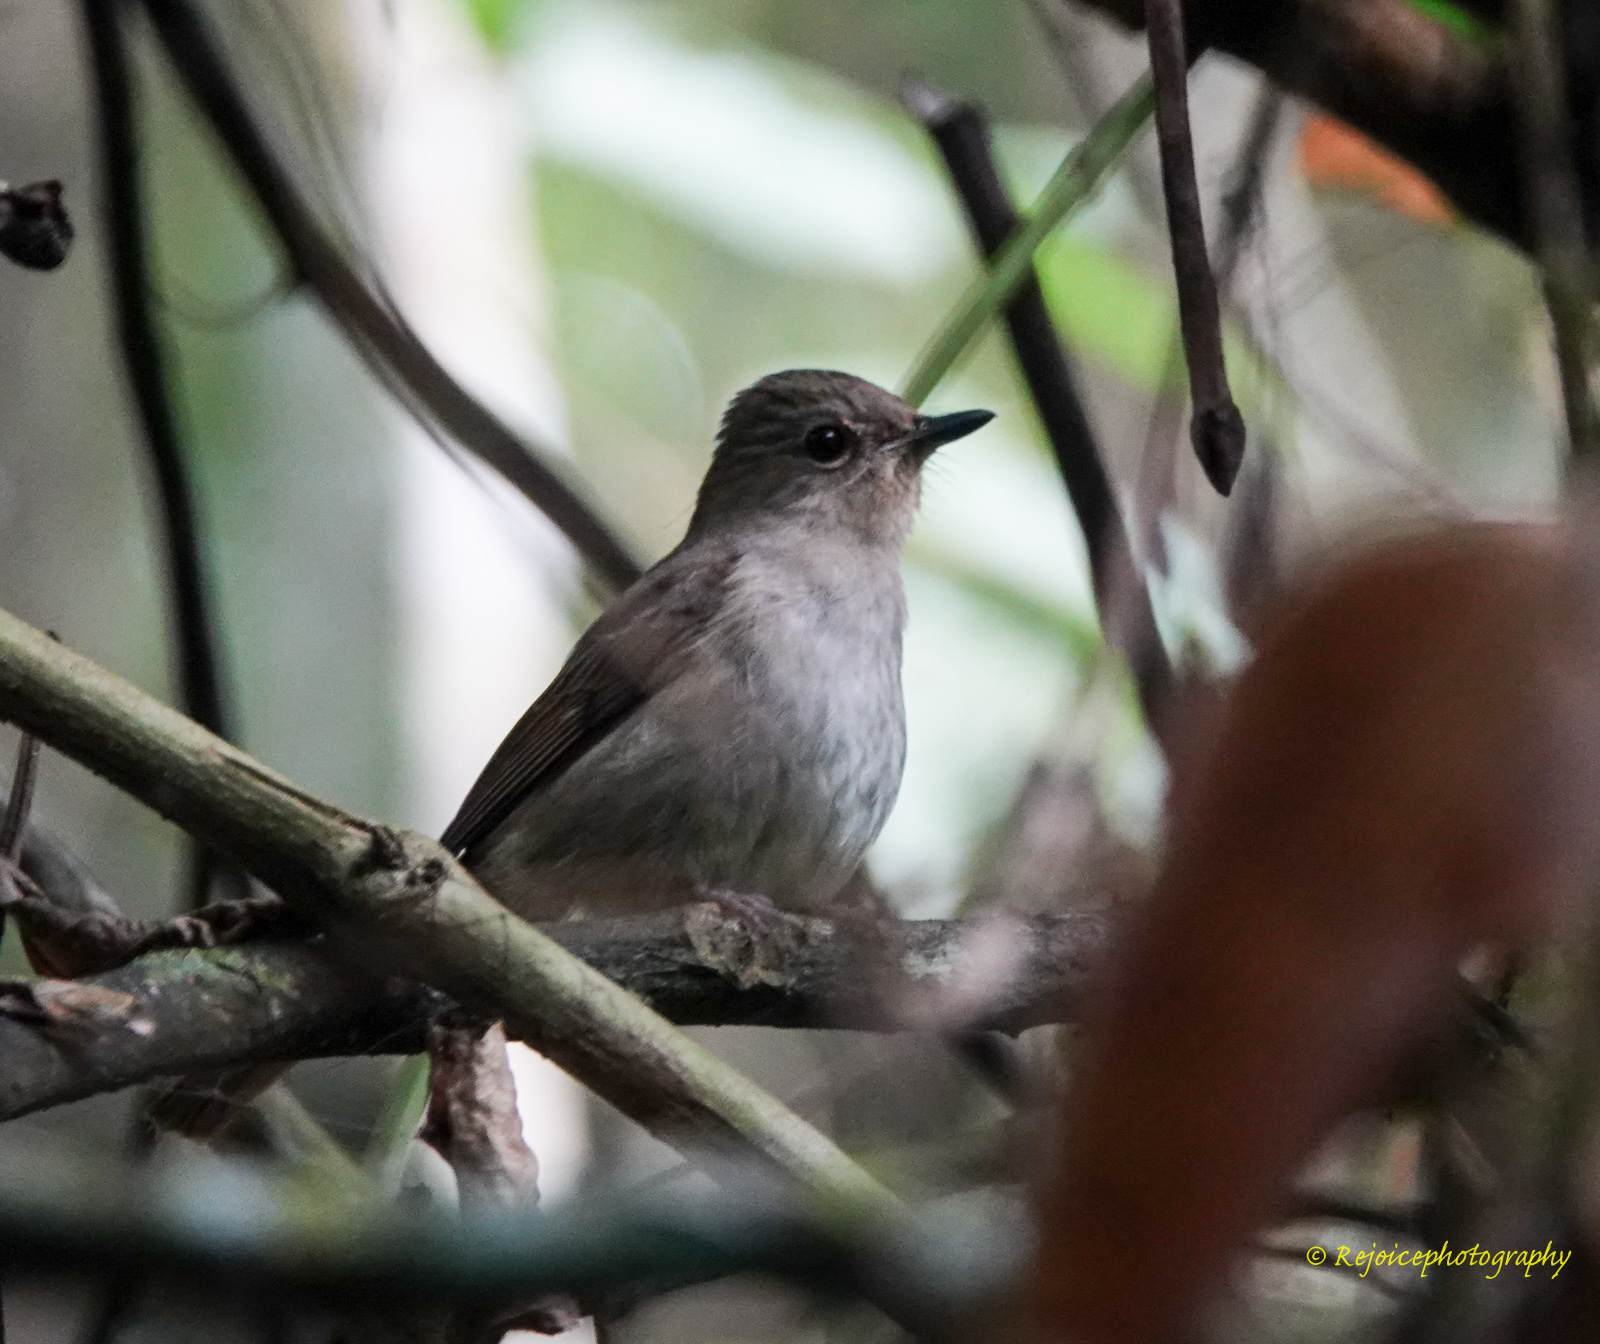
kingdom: Animalia
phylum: Chordata
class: Aves
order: Passeriformes
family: Muscicapidae
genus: Cyornis
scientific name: Cyornis unicolor
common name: Pale blue flycatcher
